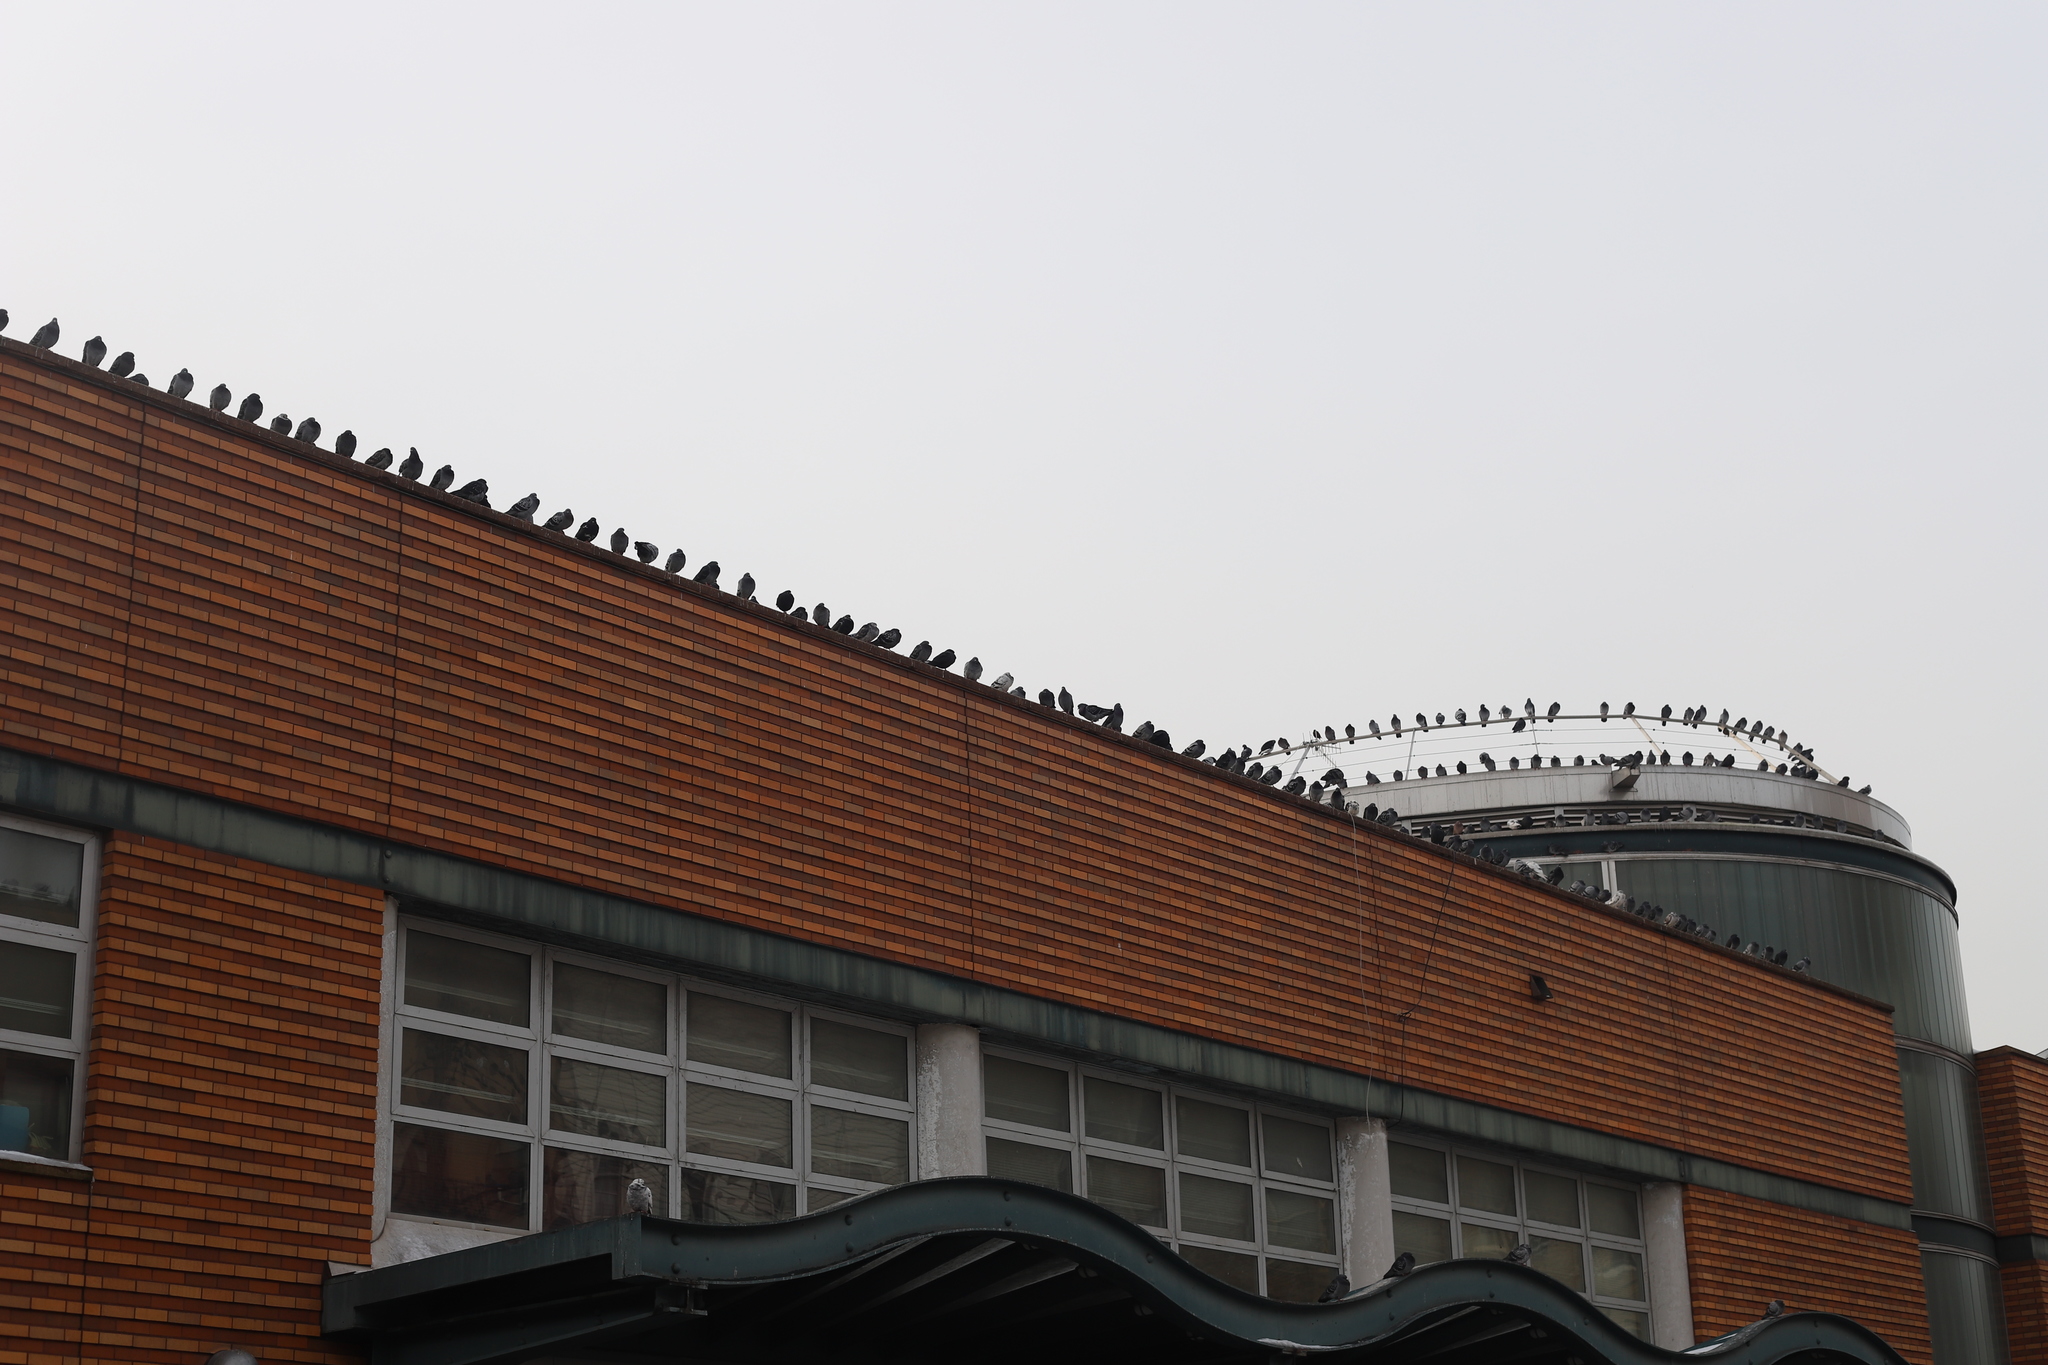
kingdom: Animalia
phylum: Chordata
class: Aves
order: Columbiformes
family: Columbidae
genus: Columba
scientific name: Columba livia
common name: Rock pigeon
